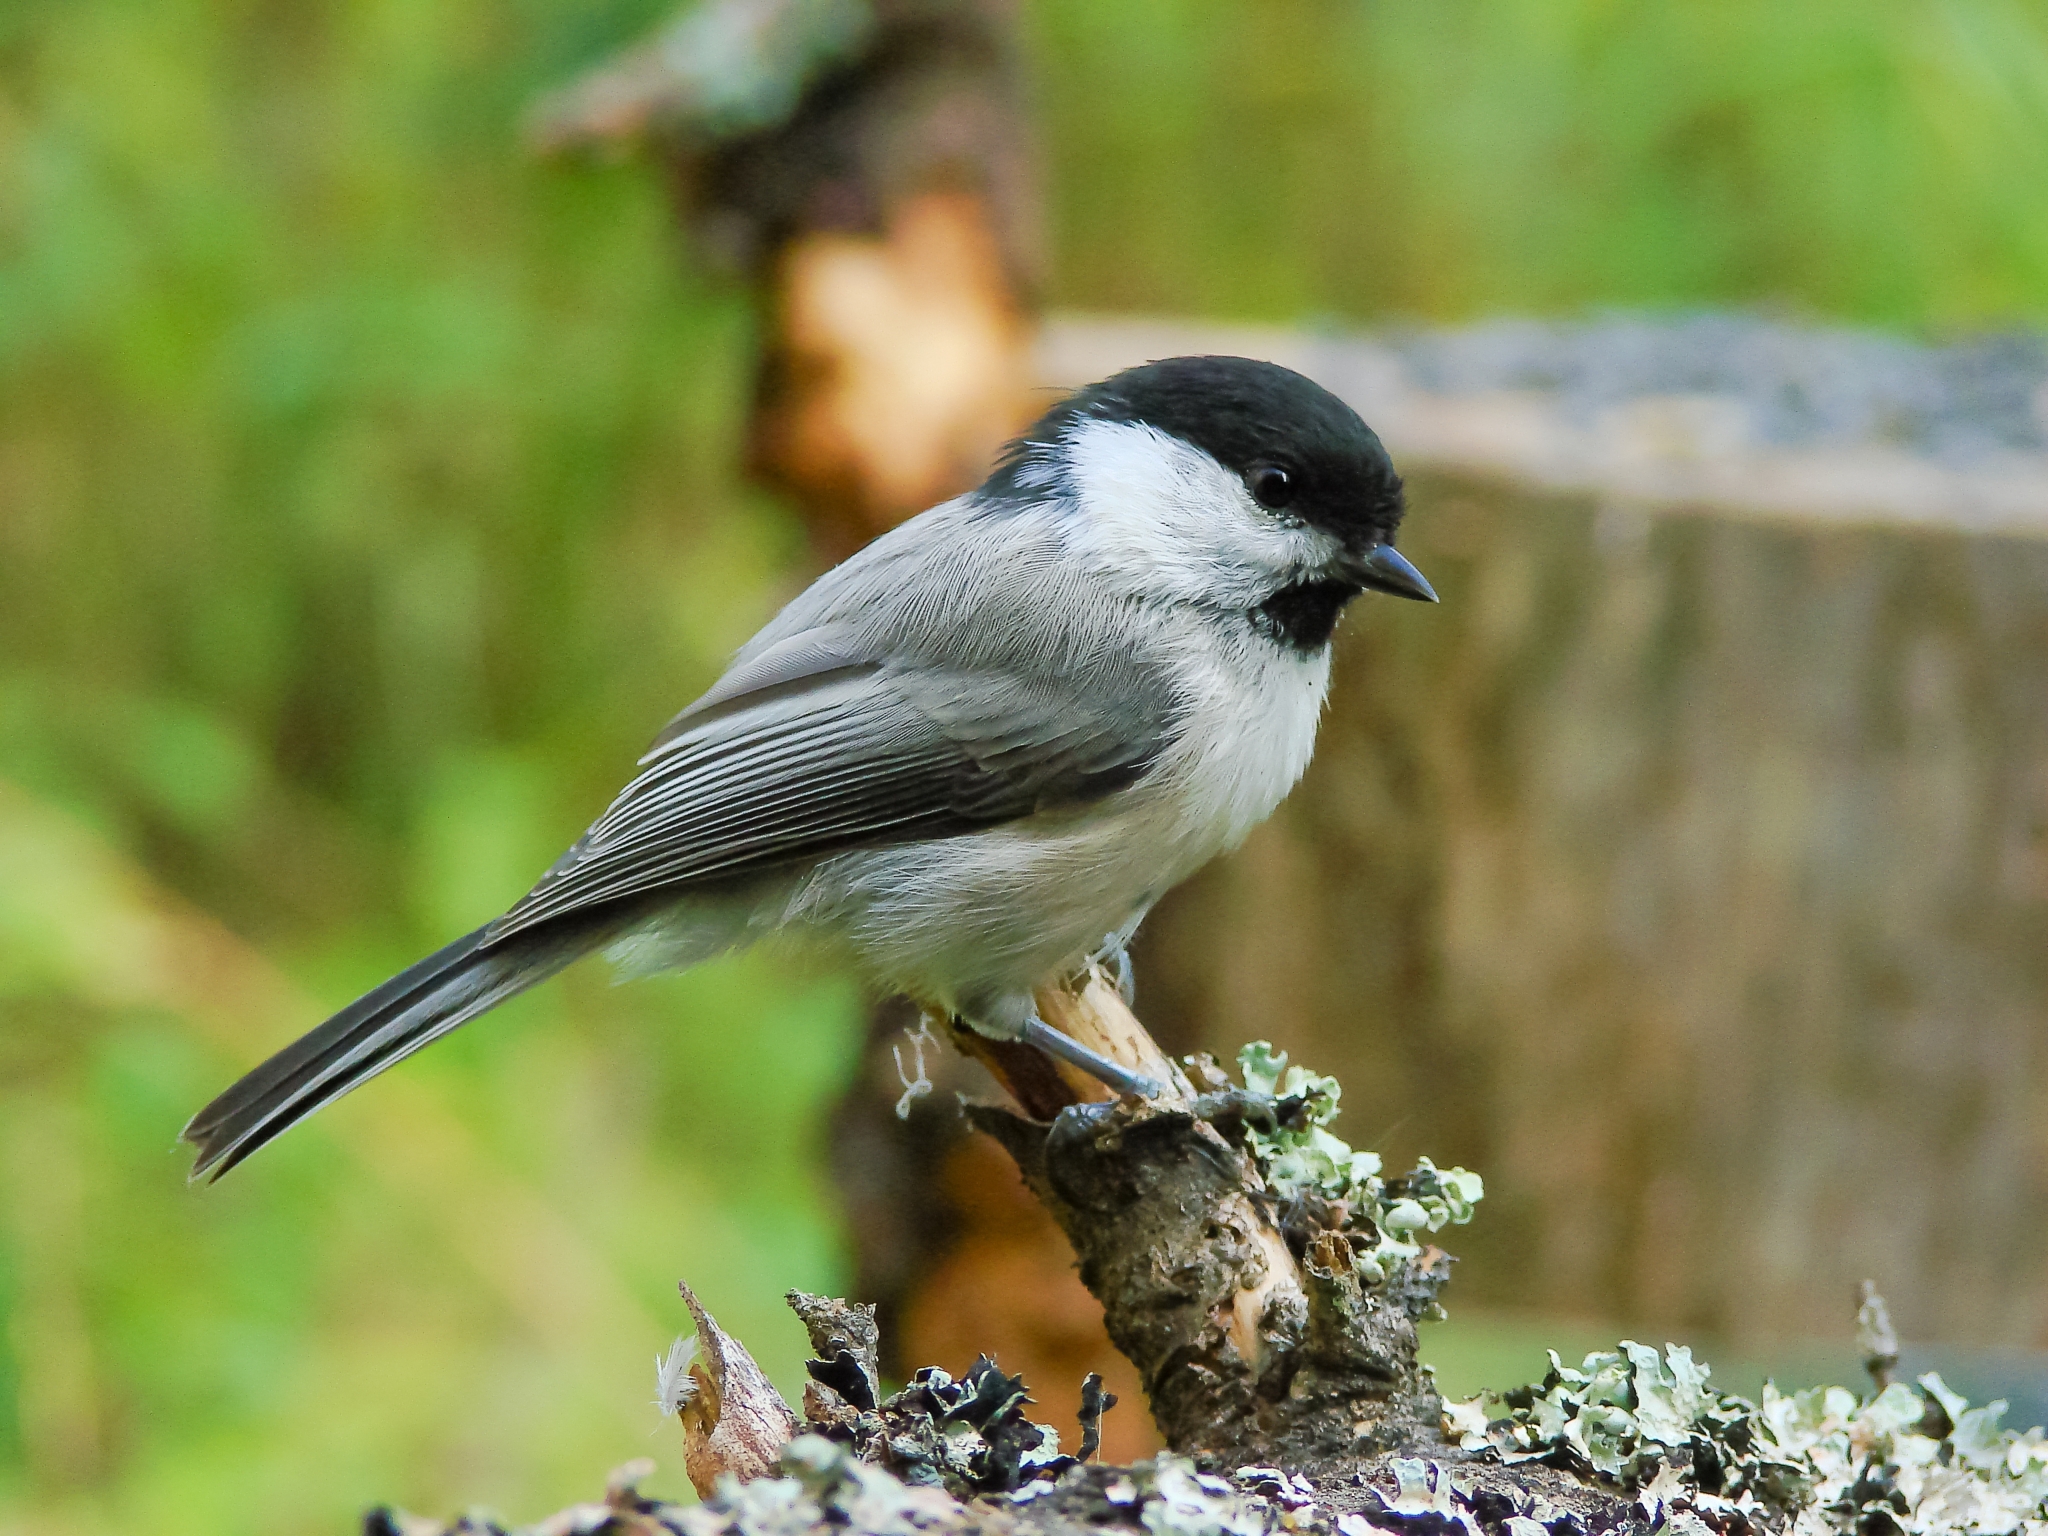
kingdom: Animalia
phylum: Chordata
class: Aves
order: Passeriformes
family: Paridae
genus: Poecile
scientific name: Poecile montanus
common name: Willow tit
